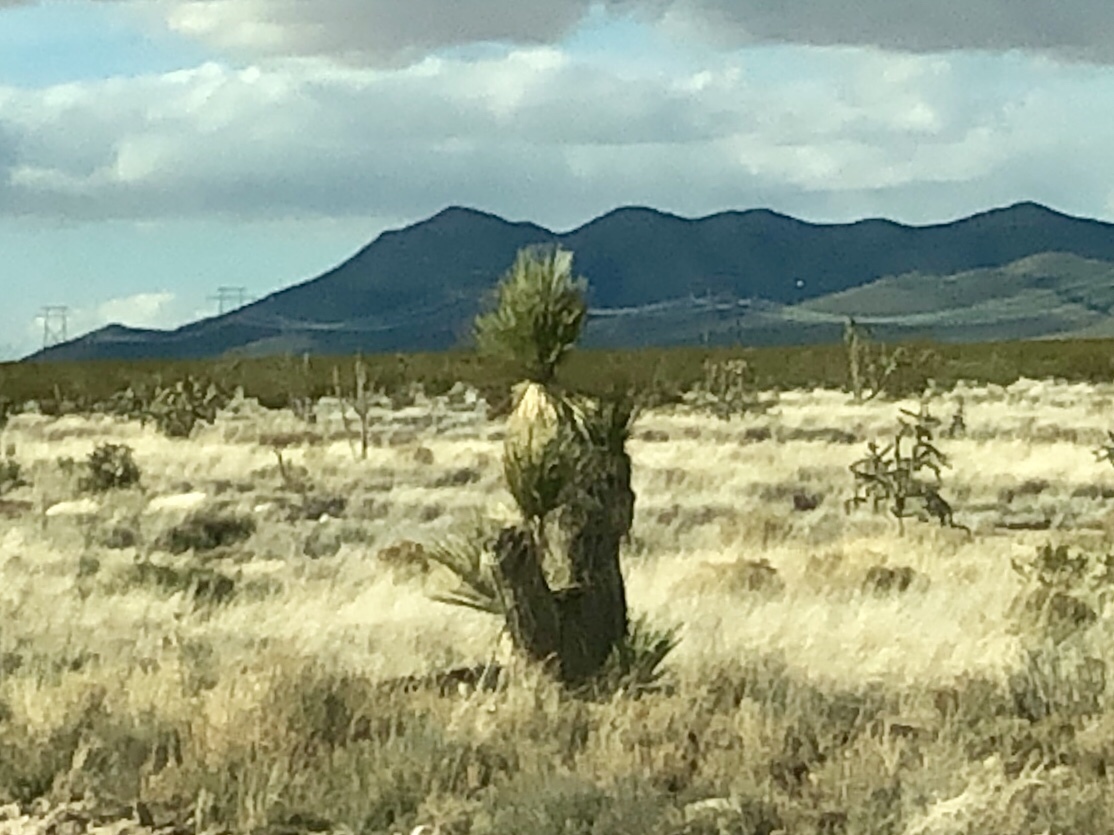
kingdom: Plantae
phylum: Tracheophyta
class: Liliopsida
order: Asparagales
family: Asparagaceae
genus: Yucca
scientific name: Yucca elata
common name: Palmella
